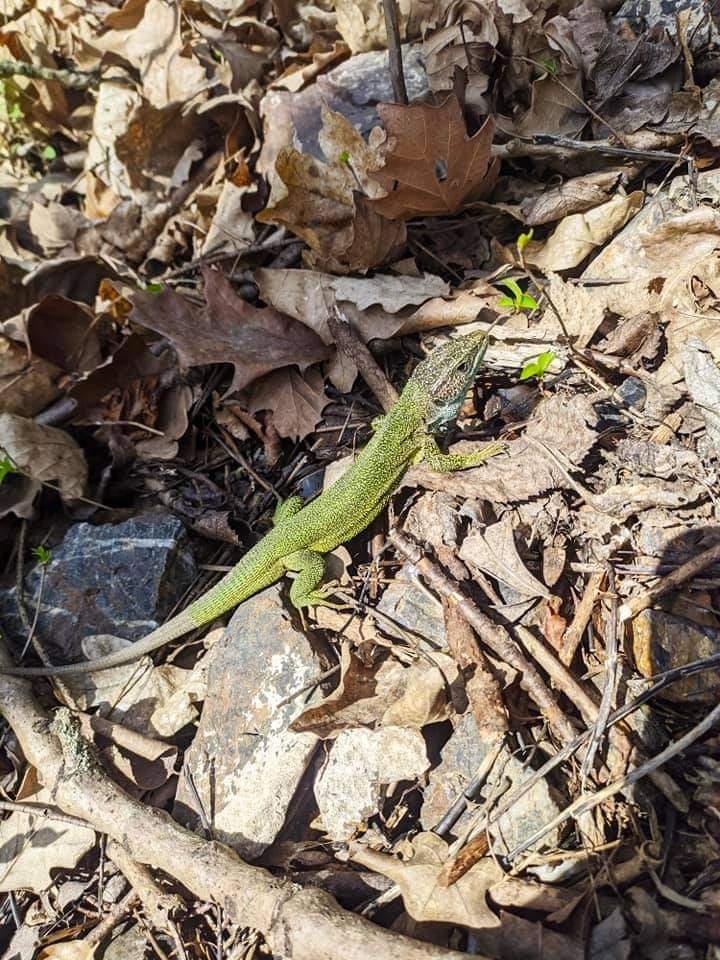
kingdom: Animalia
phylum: Chordata
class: Squamata
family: Lacertidae
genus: Lacerta
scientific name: Lacerta viridis
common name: European green lizard
